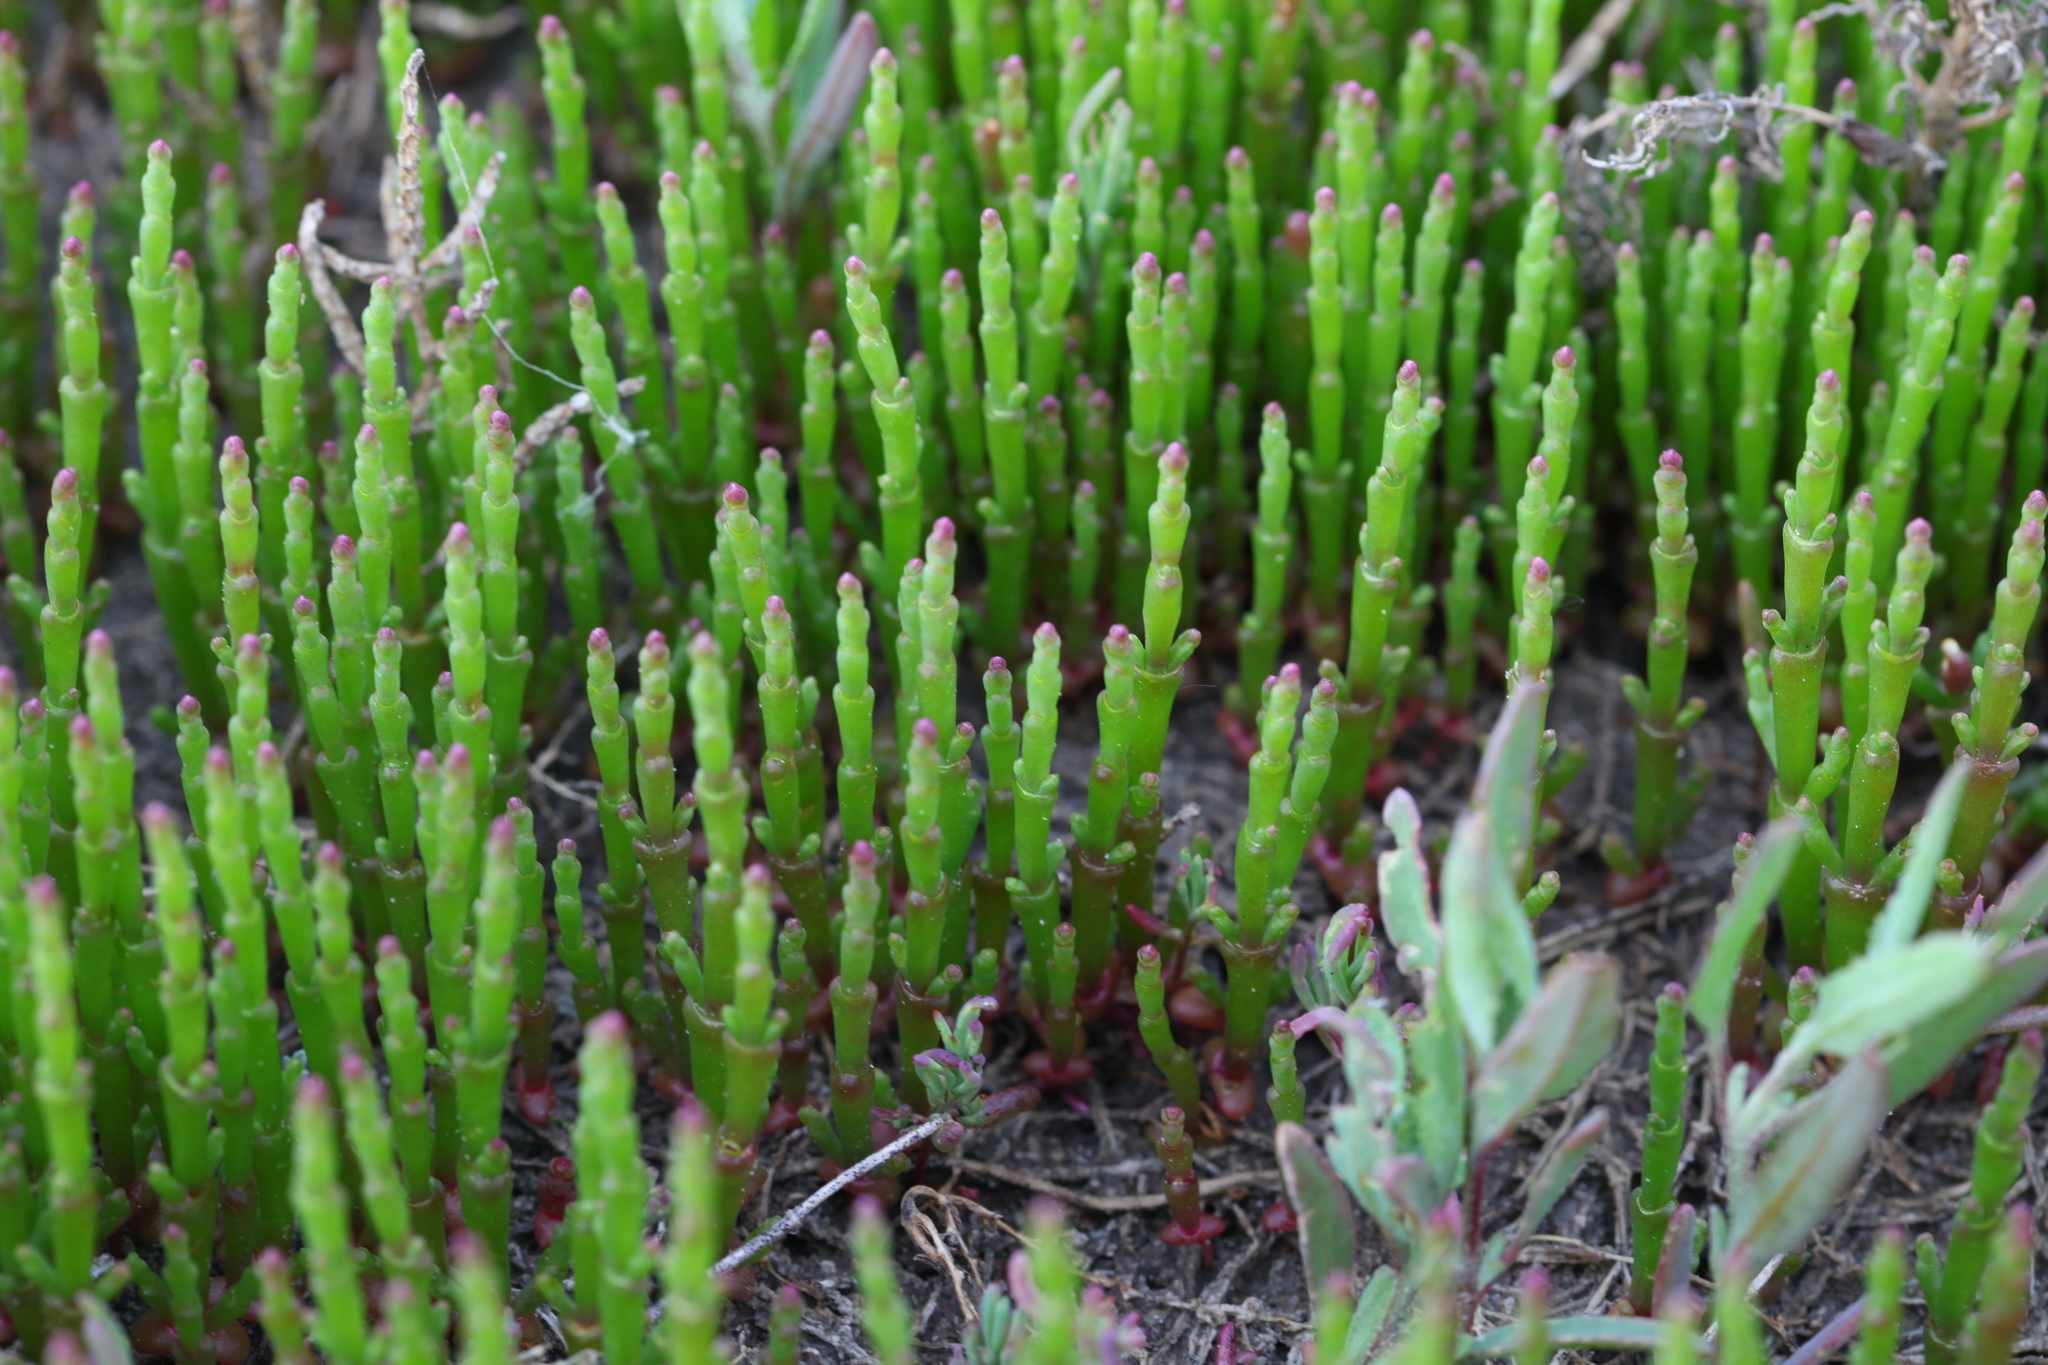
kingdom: Plantae
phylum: Tracheophyta
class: Magnoliopsida
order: Caryophyllales
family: Amaranthaceae
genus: Salicornia
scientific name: Salicornia perennans
